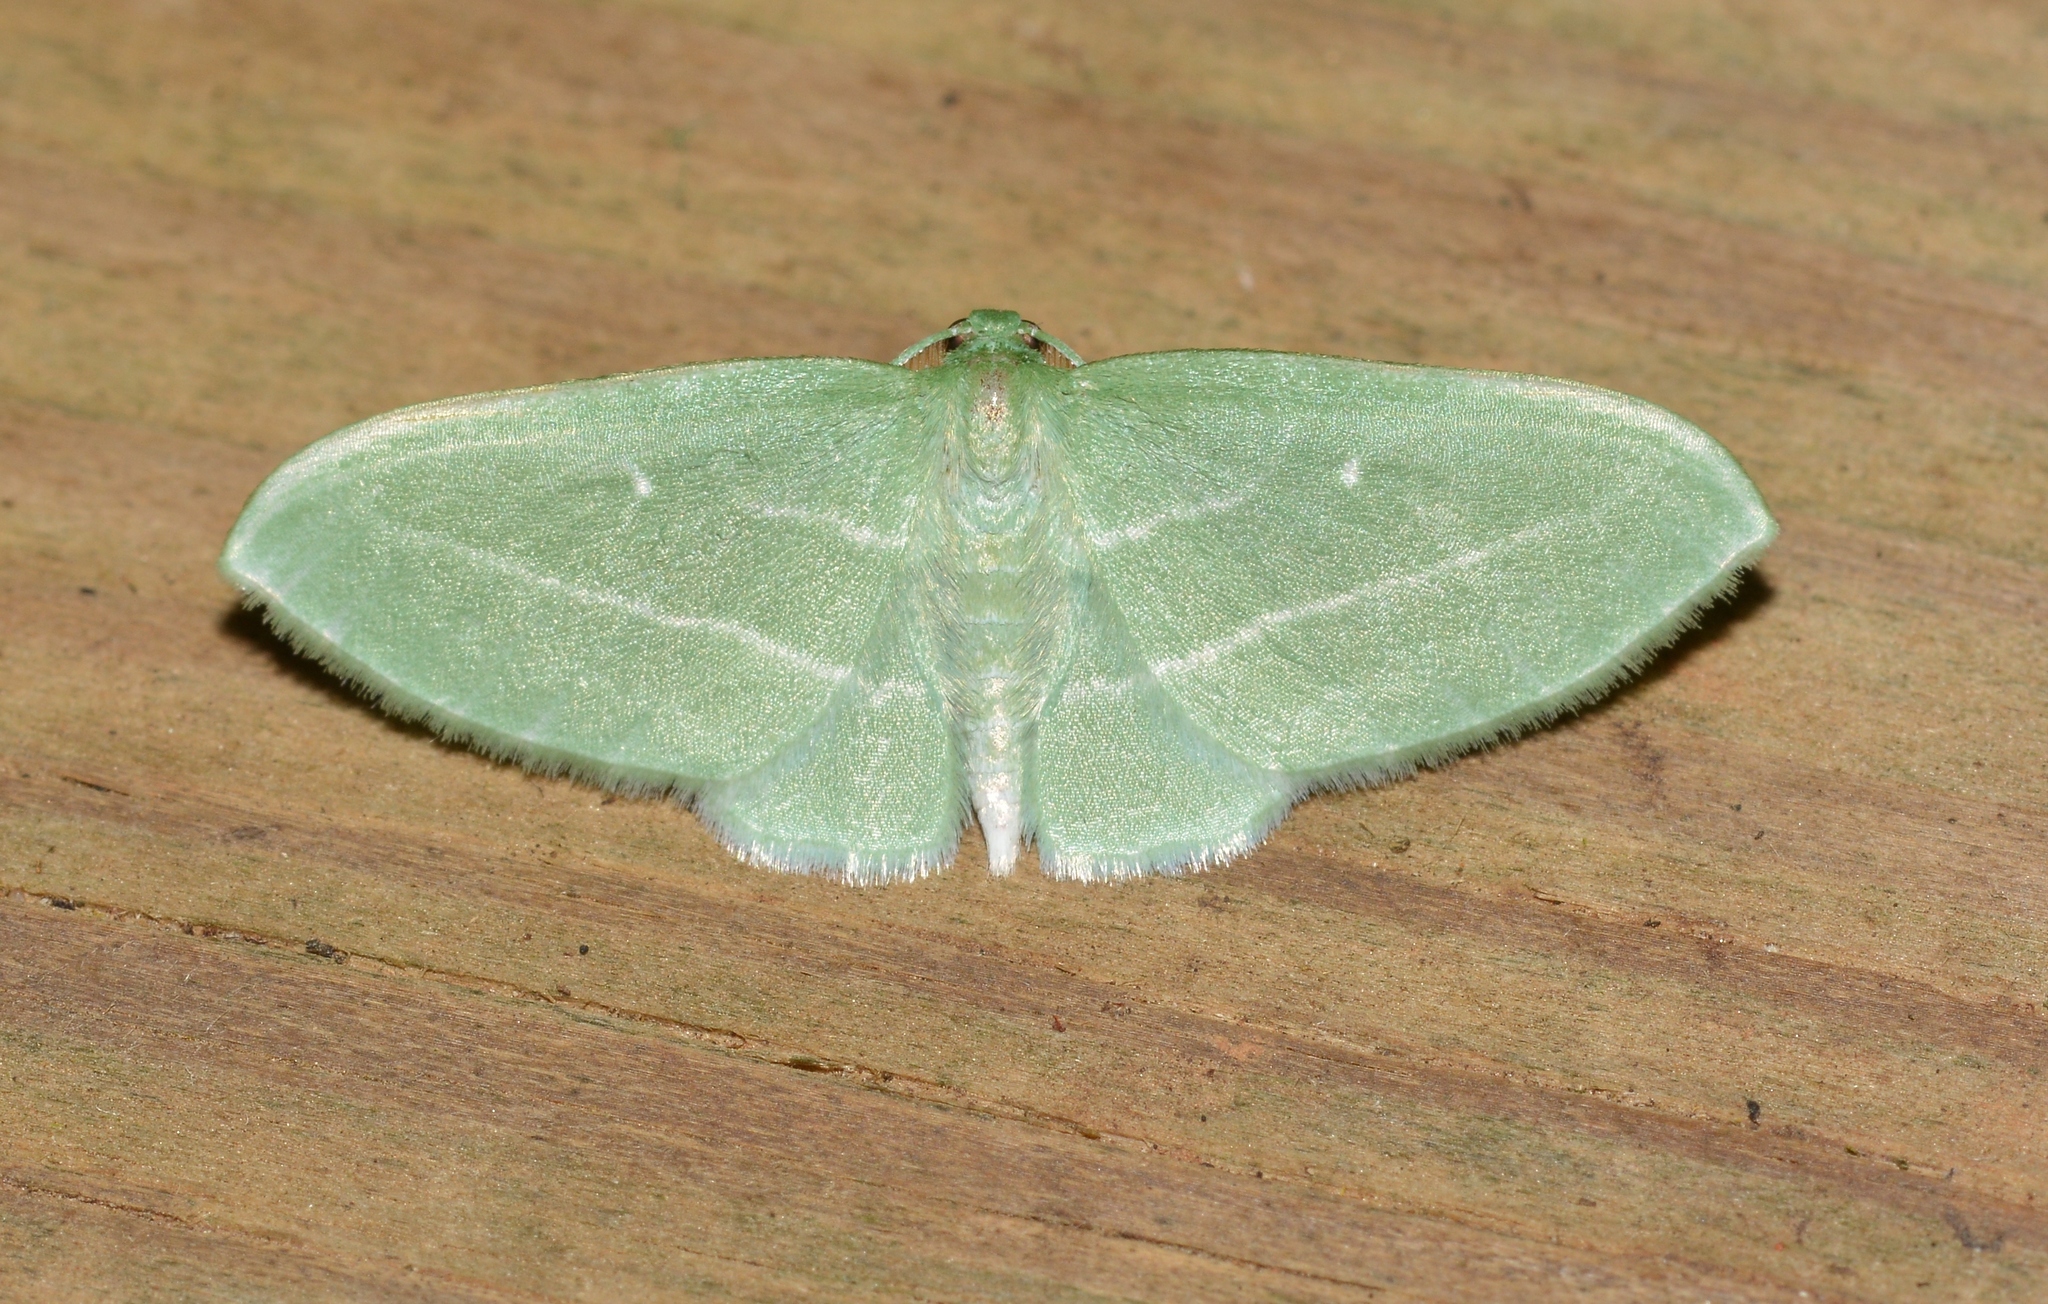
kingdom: Animalia
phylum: Arthropoda
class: Insecta
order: Lepidoptera
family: Geometridae
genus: Dyspteris
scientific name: Dyspteris abortivaria
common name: Bad-wing
